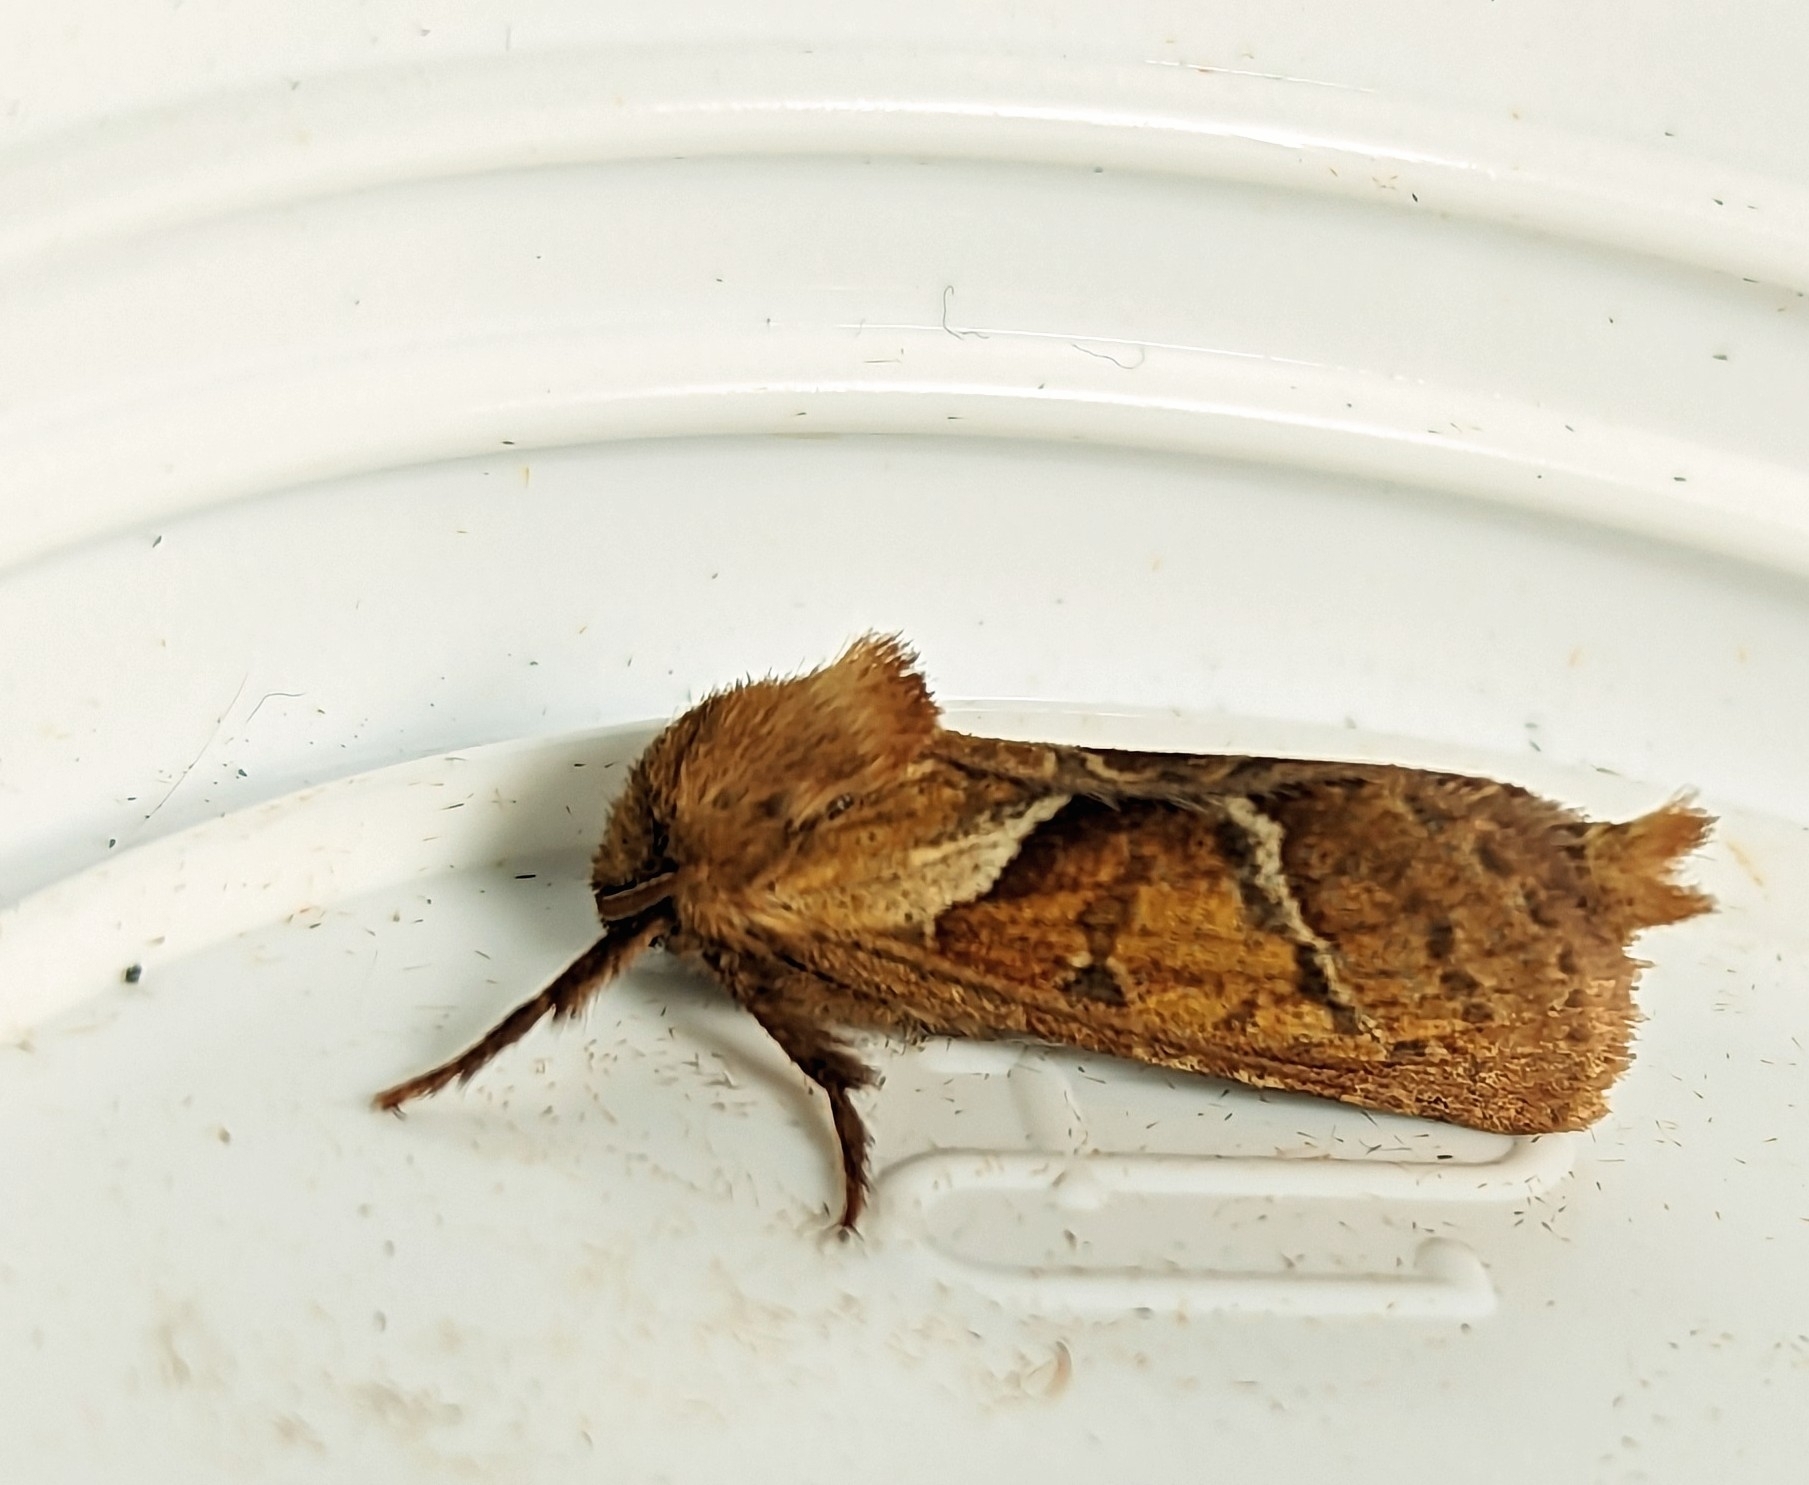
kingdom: Animalia
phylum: Arthropoda
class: Insecta
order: Lepidoptera
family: Hepialidae
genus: Triodia
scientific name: Triodia sylvina
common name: Orange swift
